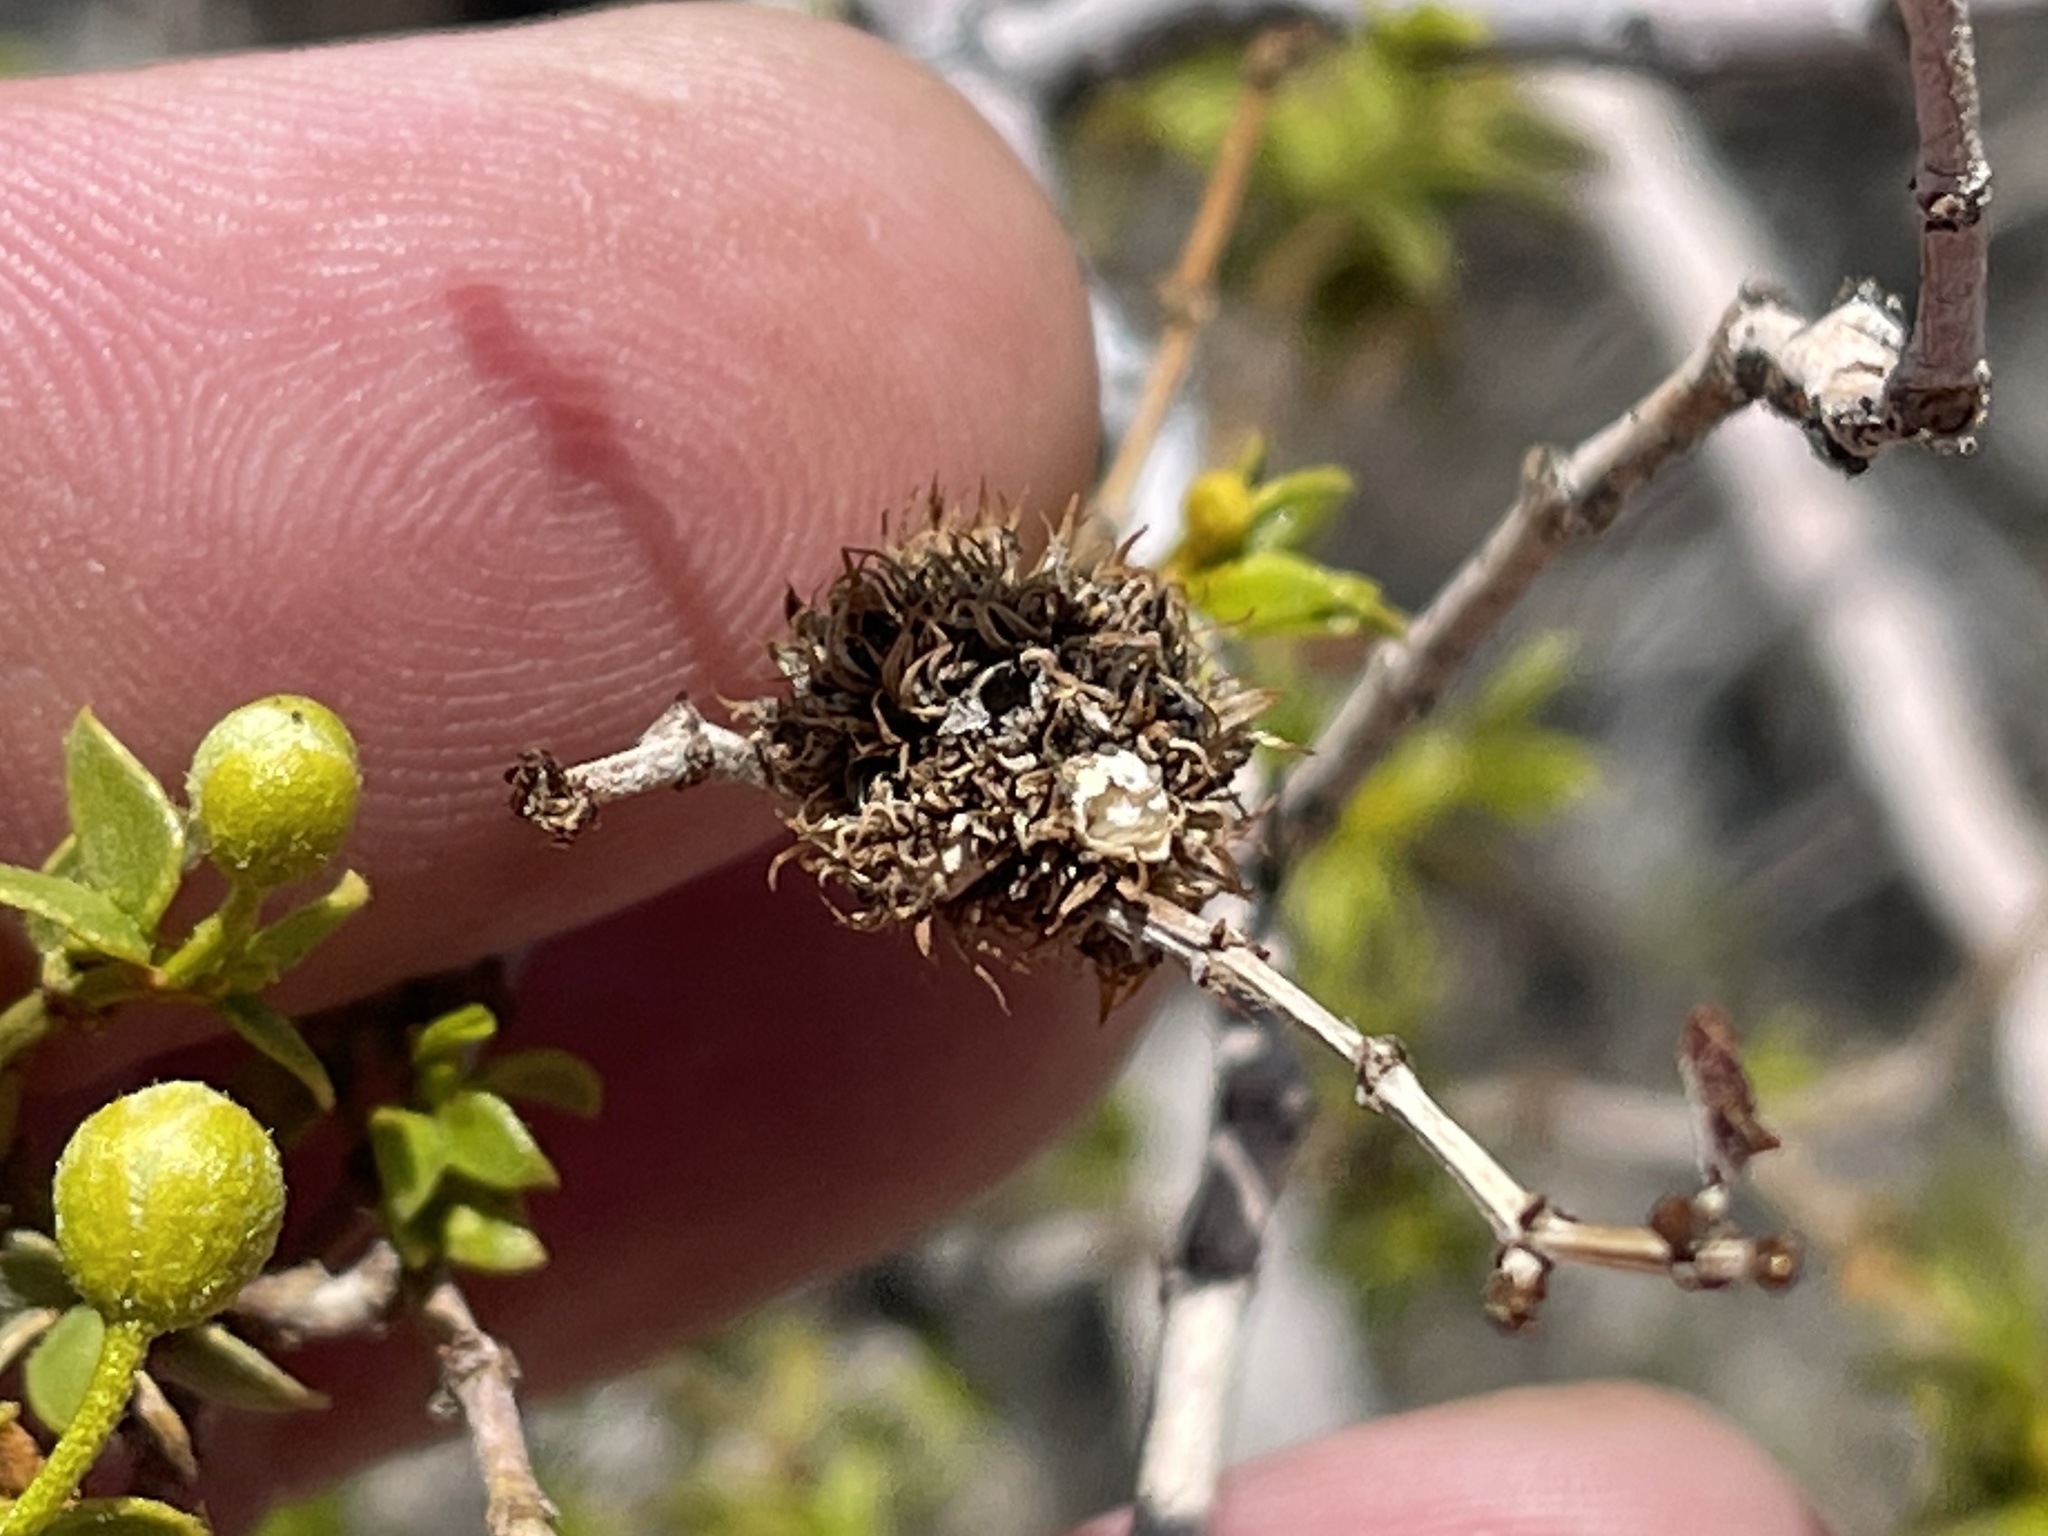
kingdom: Animalia
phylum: Arthropoda
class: Insecta
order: Diptera
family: Cecidomyiidae
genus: Asphondylia
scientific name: Asphondylia auripila
